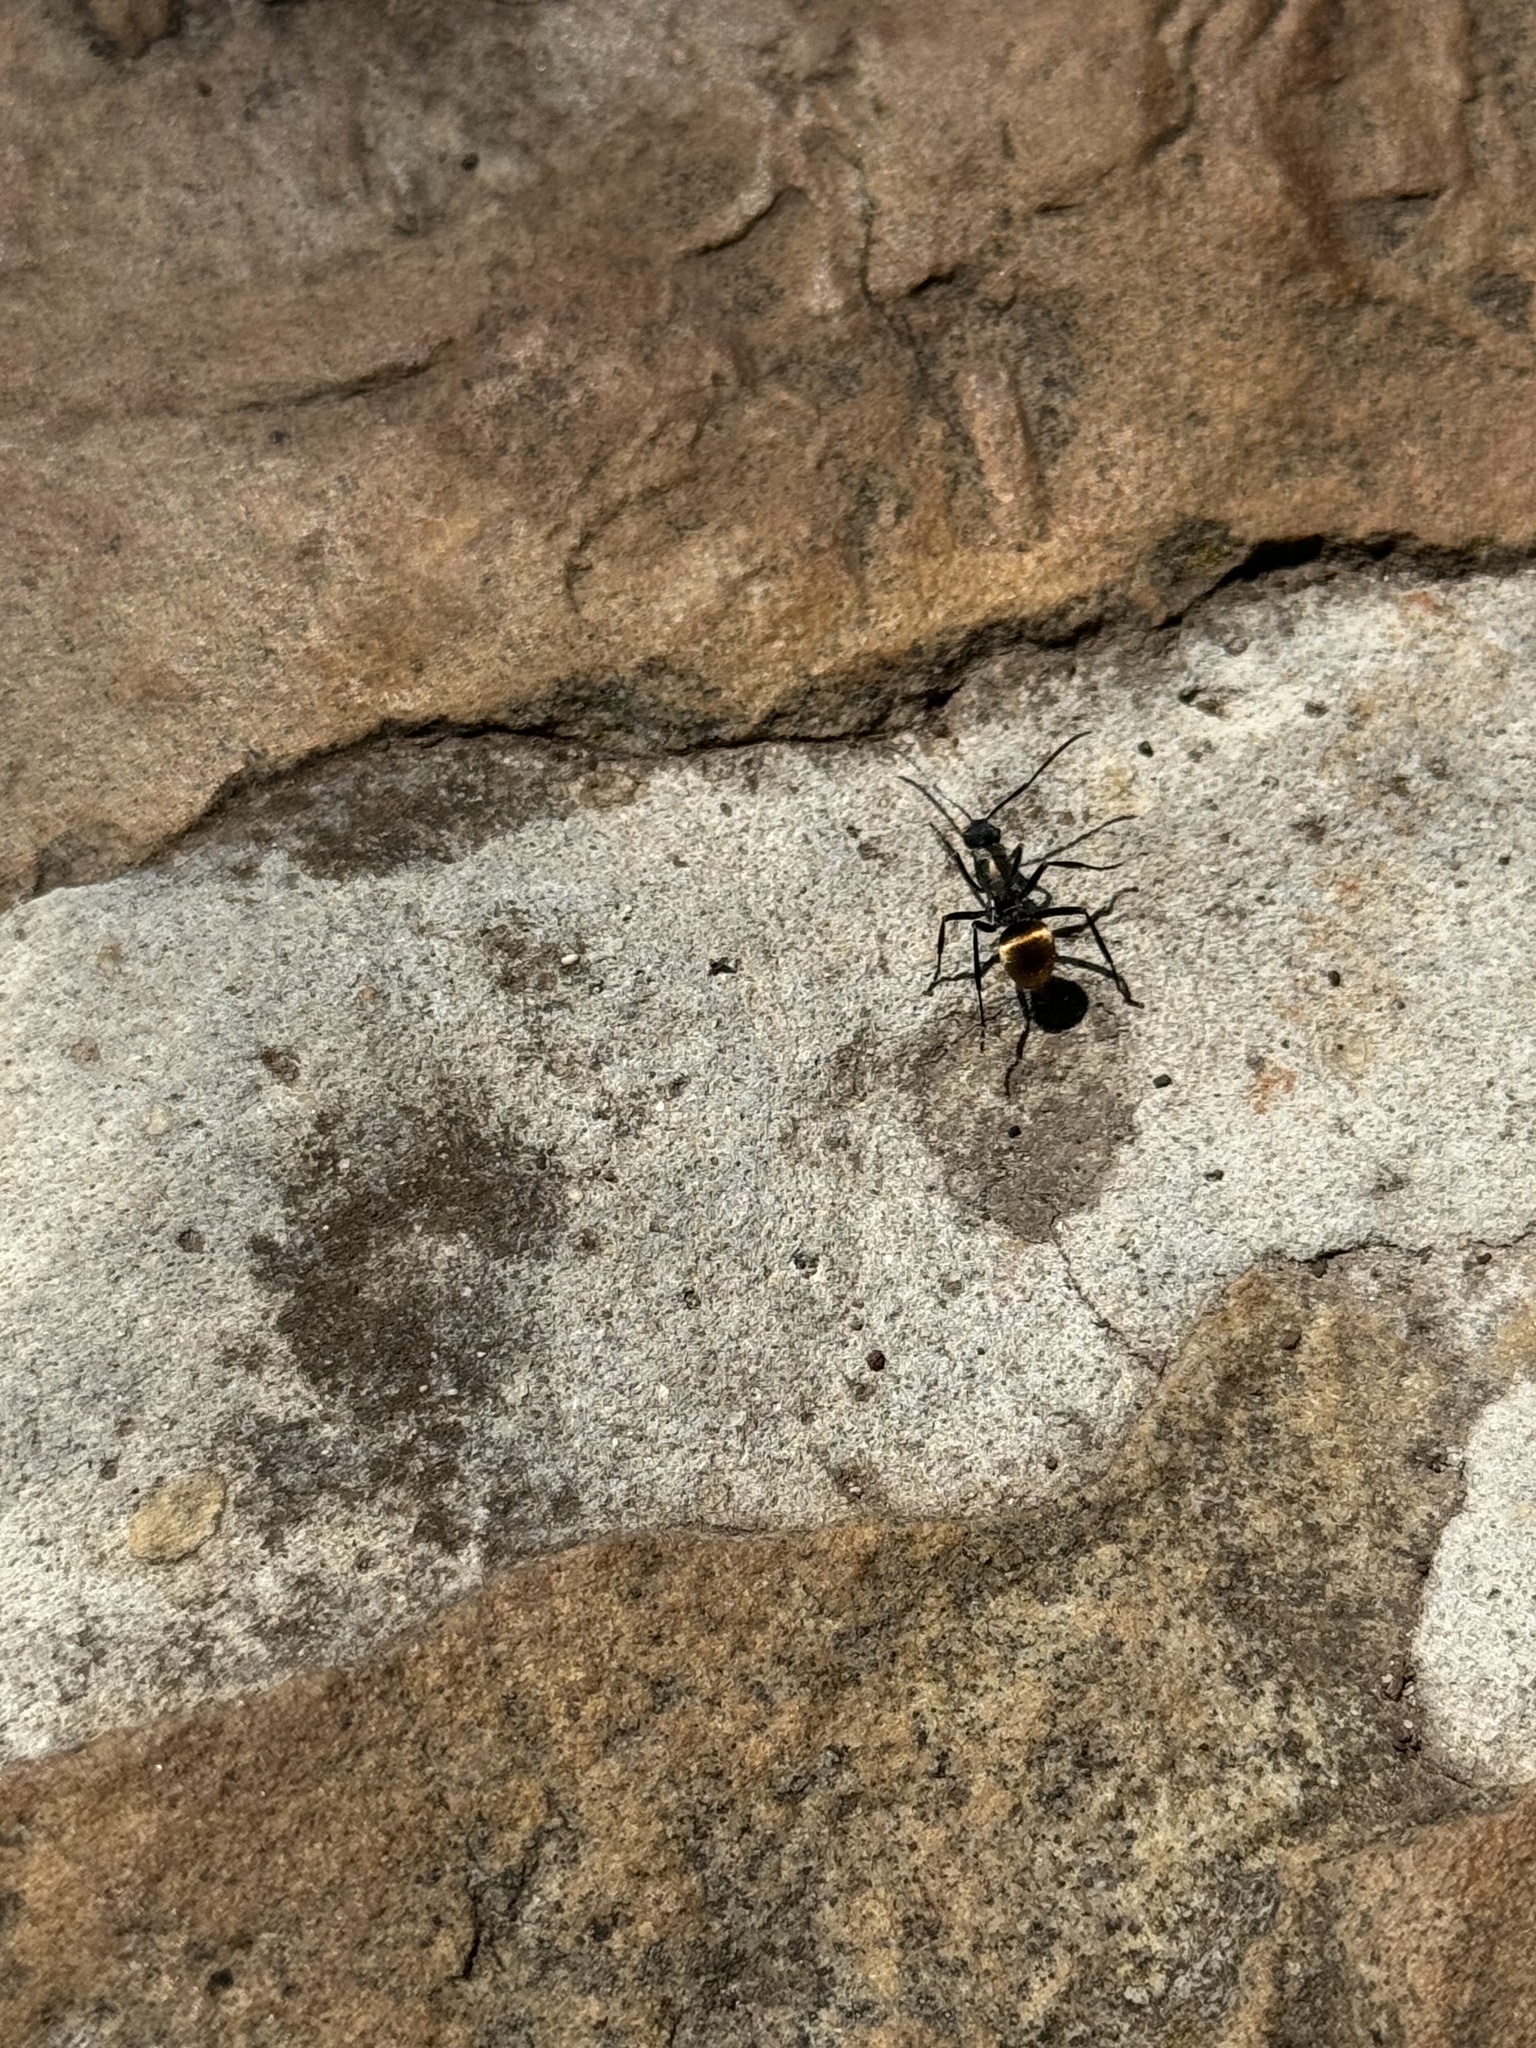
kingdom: Animalia
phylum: Arthropoda
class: Insecta
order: Hymenoptera
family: Formicidae
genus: Polyrhachis
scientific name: Polyrhachis ammon
